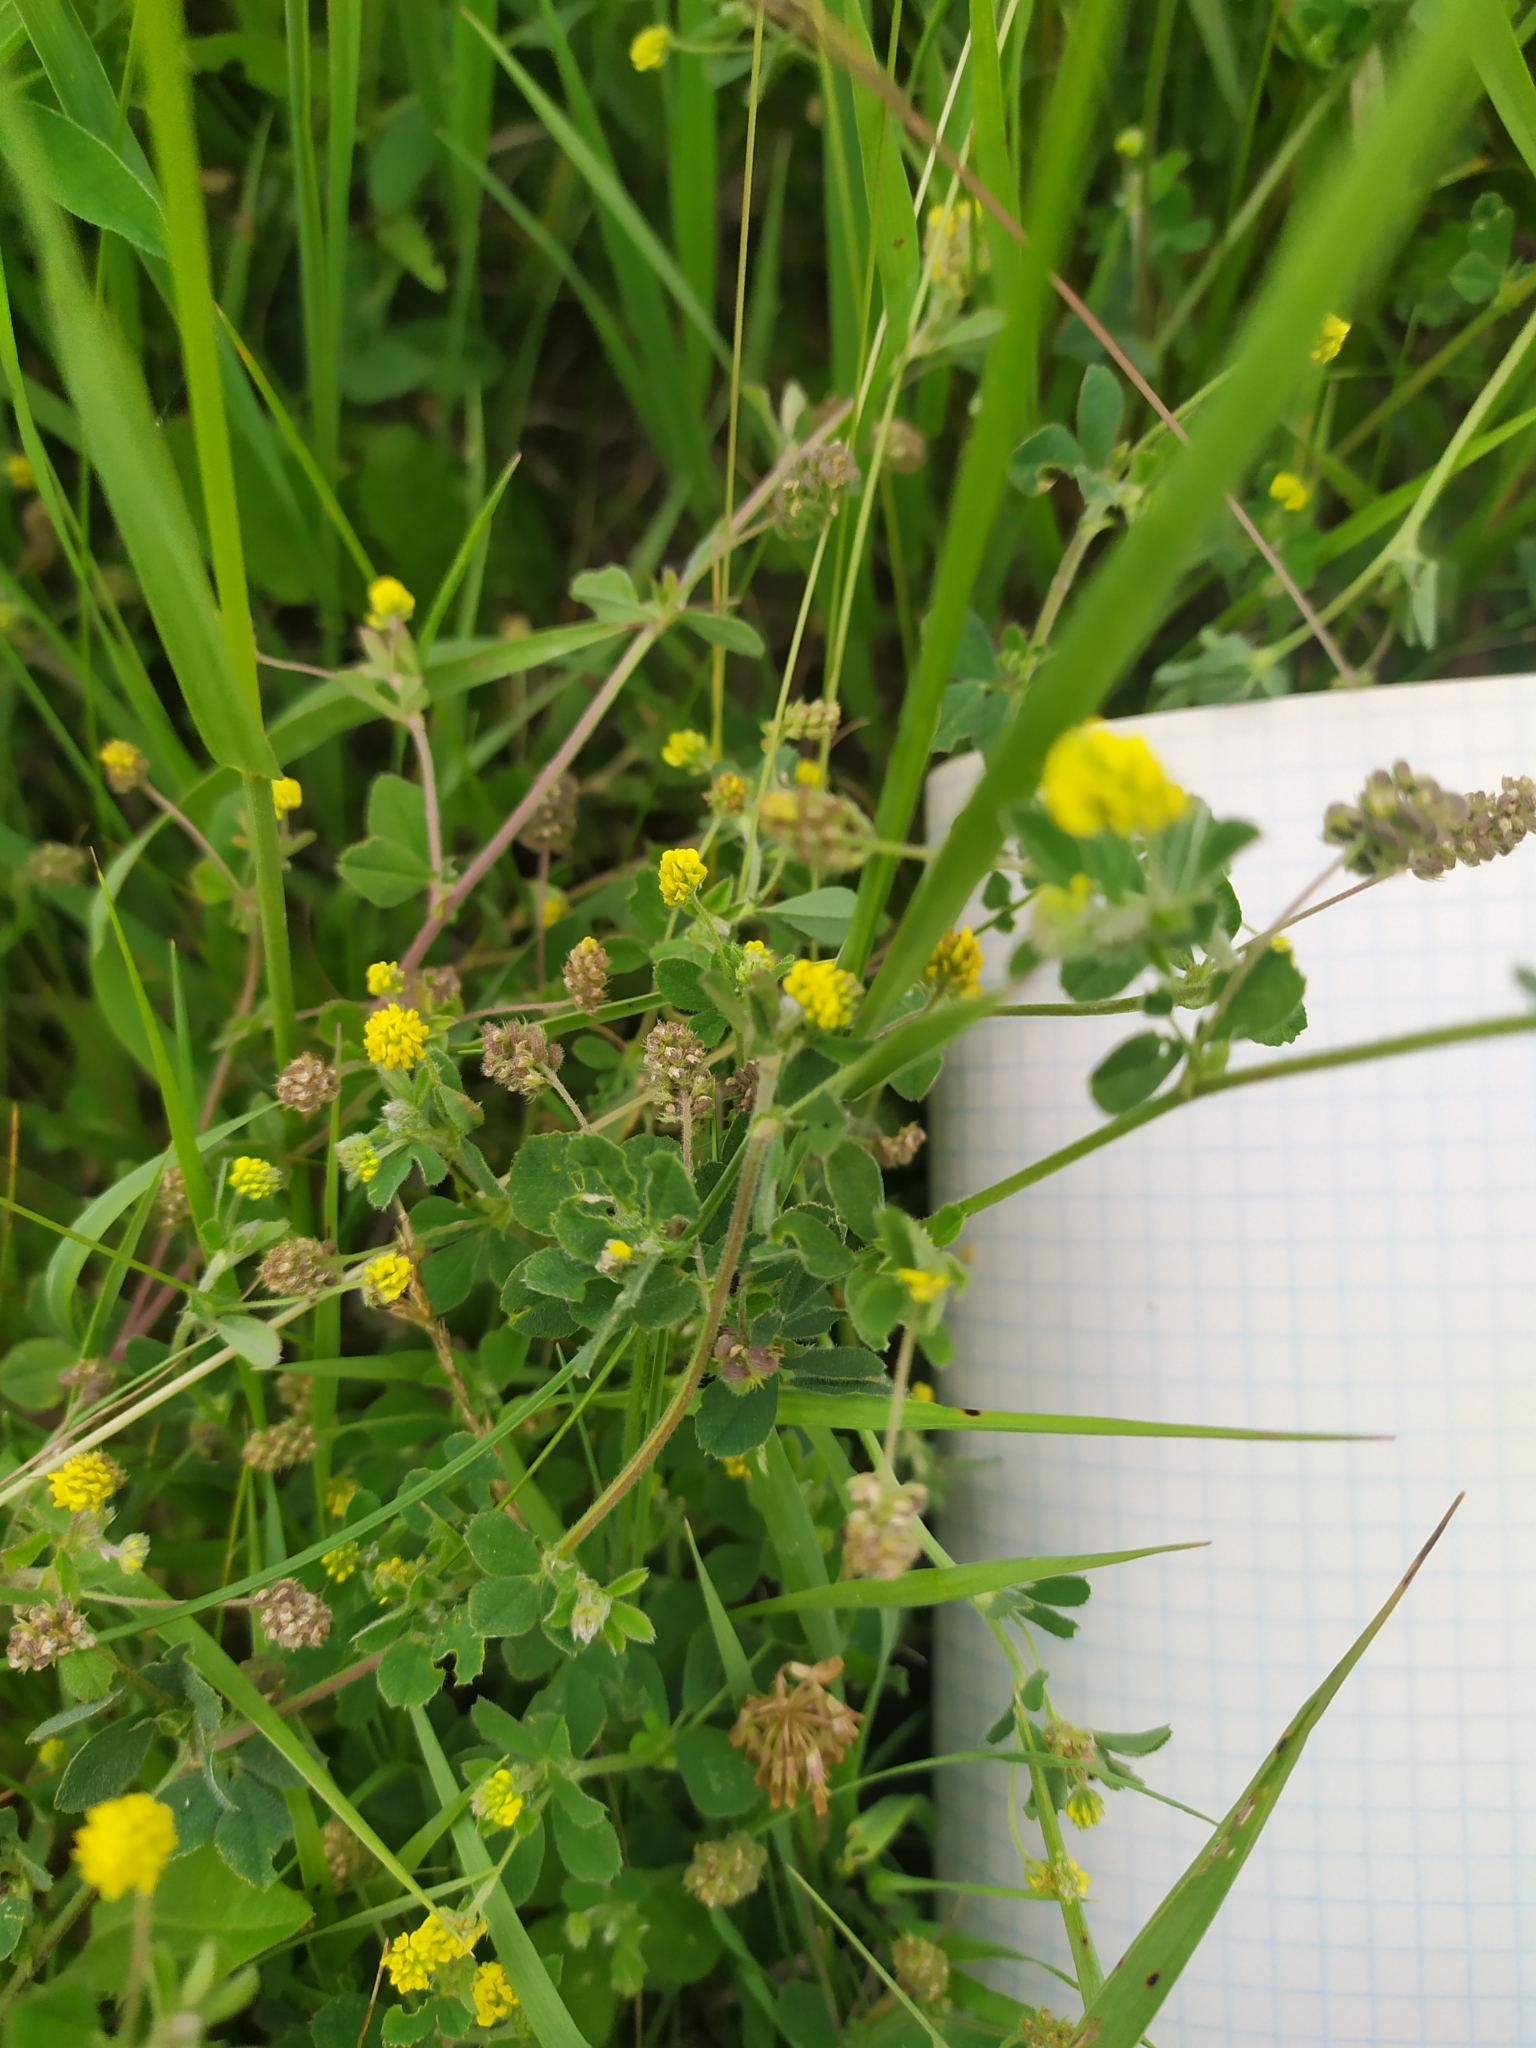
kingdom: Plantae
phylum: Tracheophyta
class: Magnoliopsida
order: Fabales
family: Fabaceae
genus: Medicago
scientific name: Medicago lupulina
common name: Black medick
